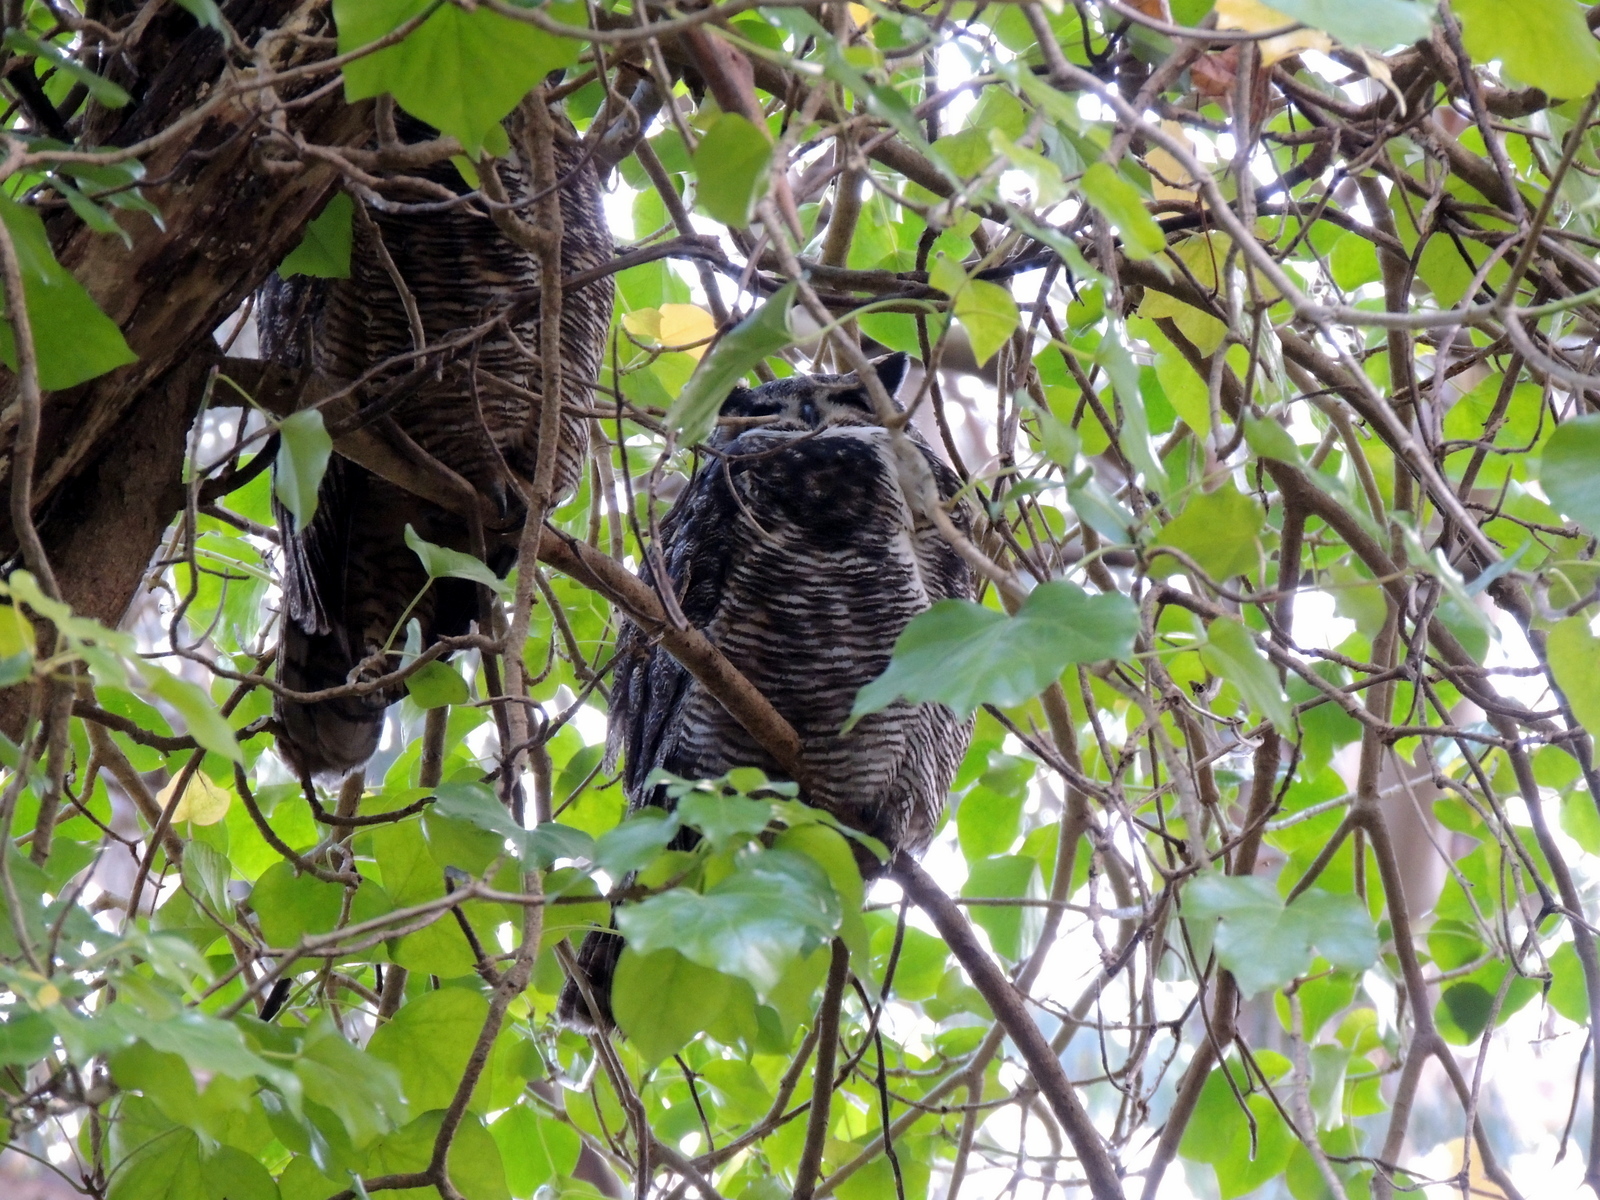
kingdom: Animalia
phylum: Chordata
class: Aves
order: Strigiformes
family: Strigidae
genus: Bubo
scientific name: Bubo virginianus
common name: Great horned owl
